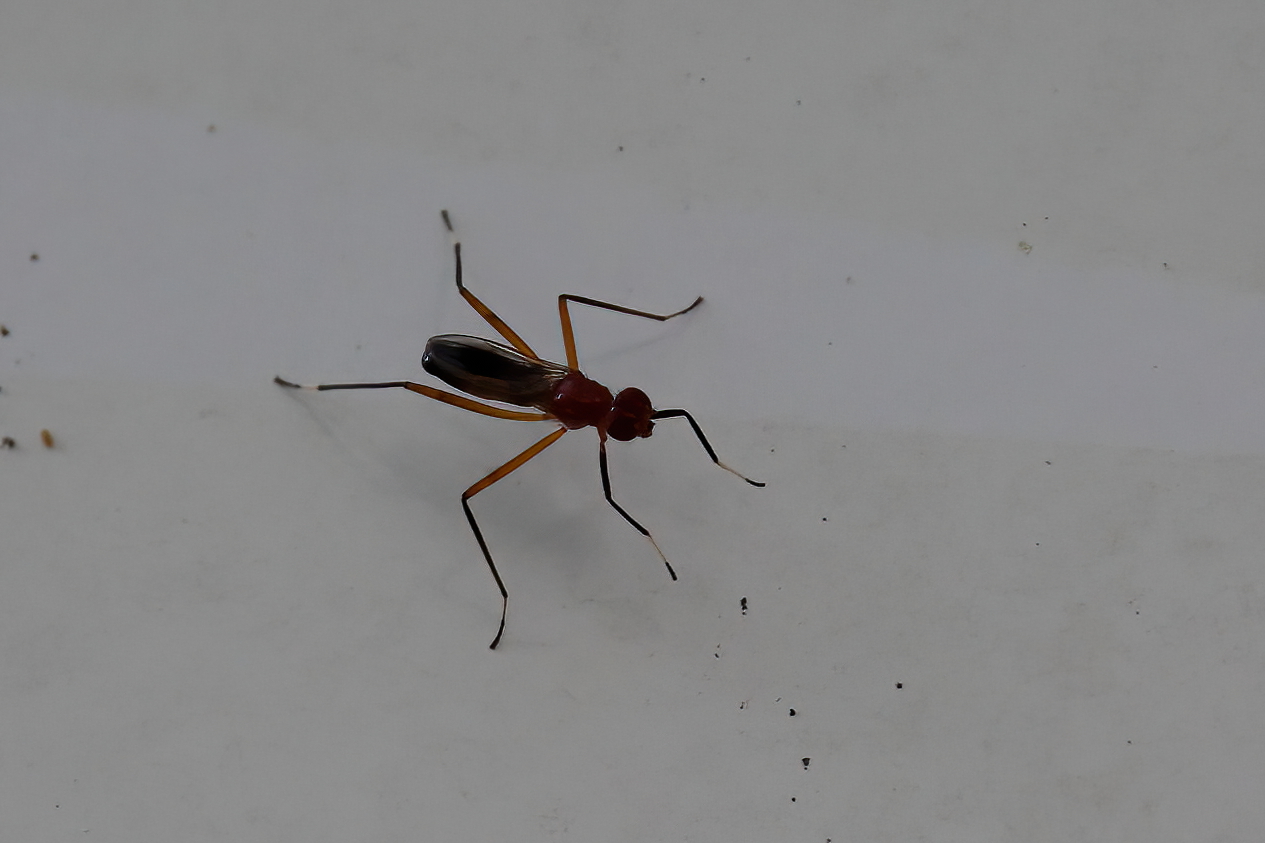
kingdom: Animalia
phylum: Arthropoda
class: Insecta
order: Diptera
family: Micropezidae
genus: Grallipeza
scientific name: Grallipeza nebulosa
